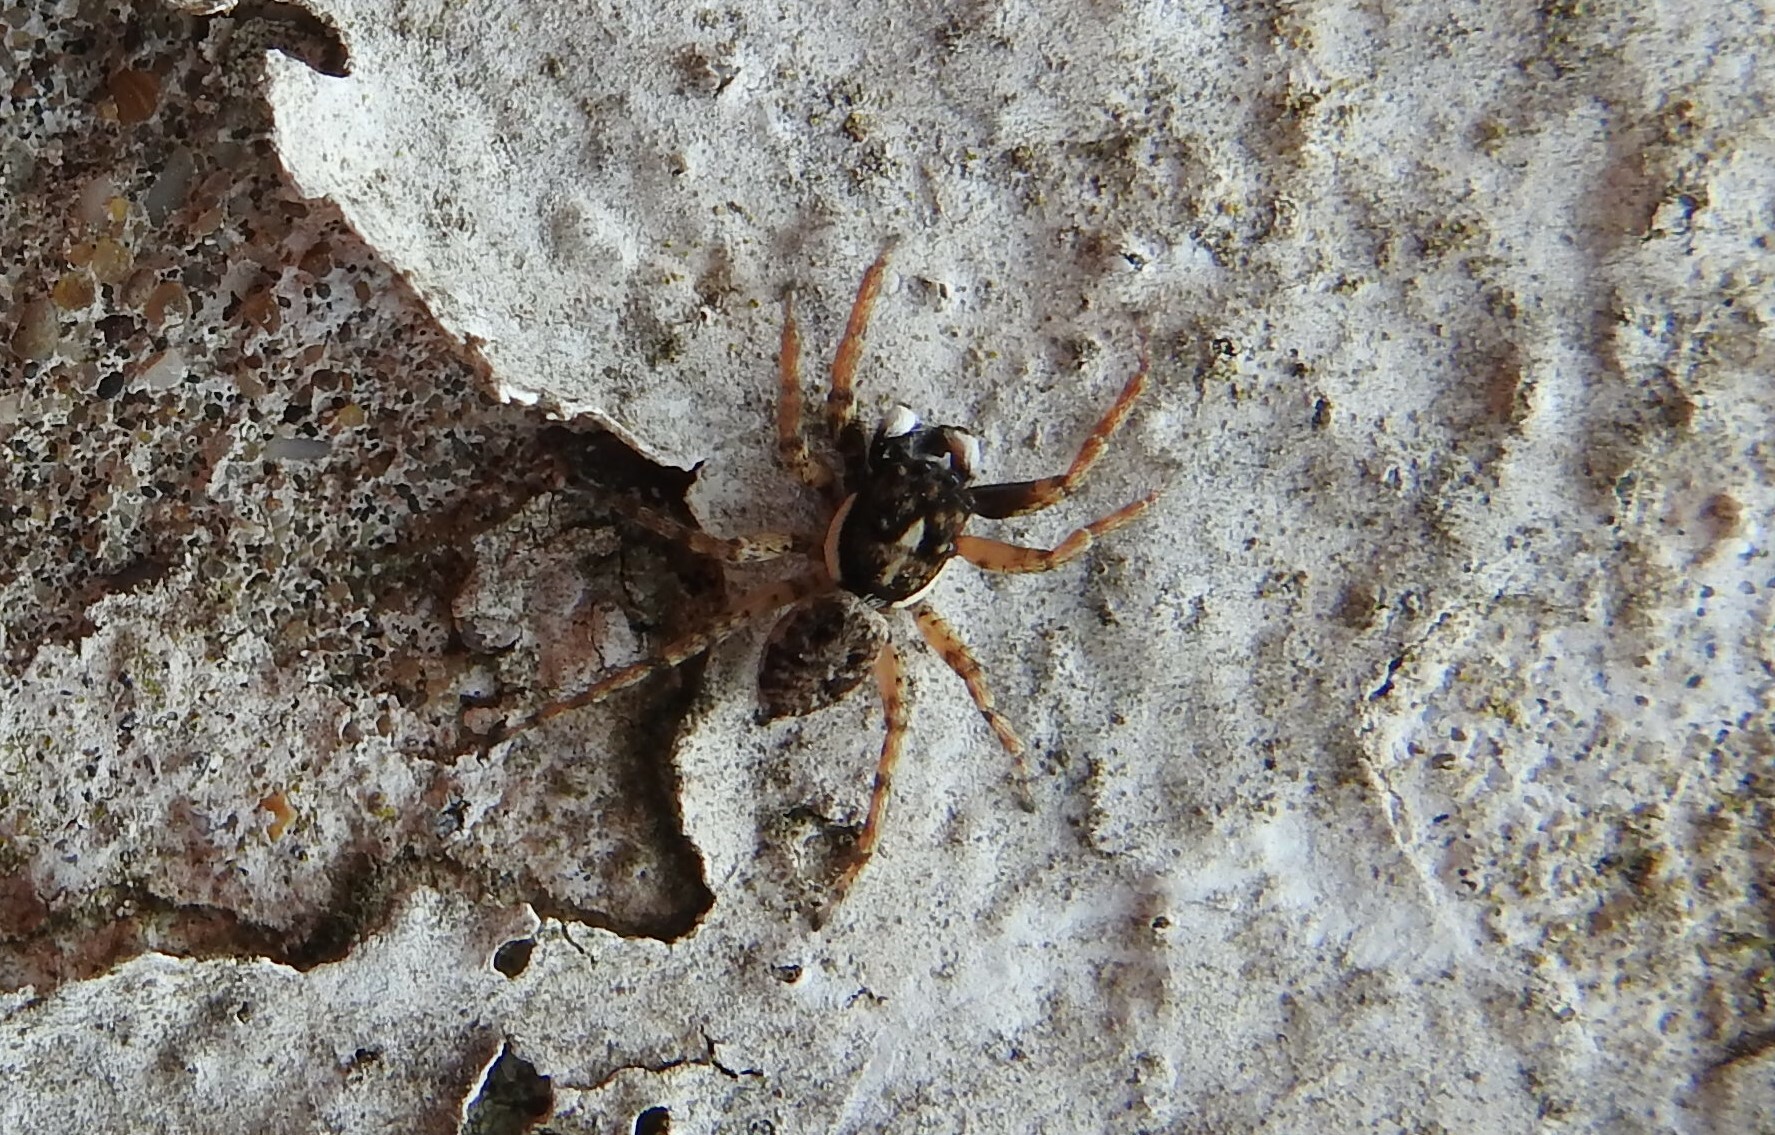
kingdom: Animalia
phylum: Arthropoda
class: Arachnida
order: Araneae
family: Salticidae
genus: Menemerus
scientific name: Menemerus semilimbatus
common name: Jumping spider
